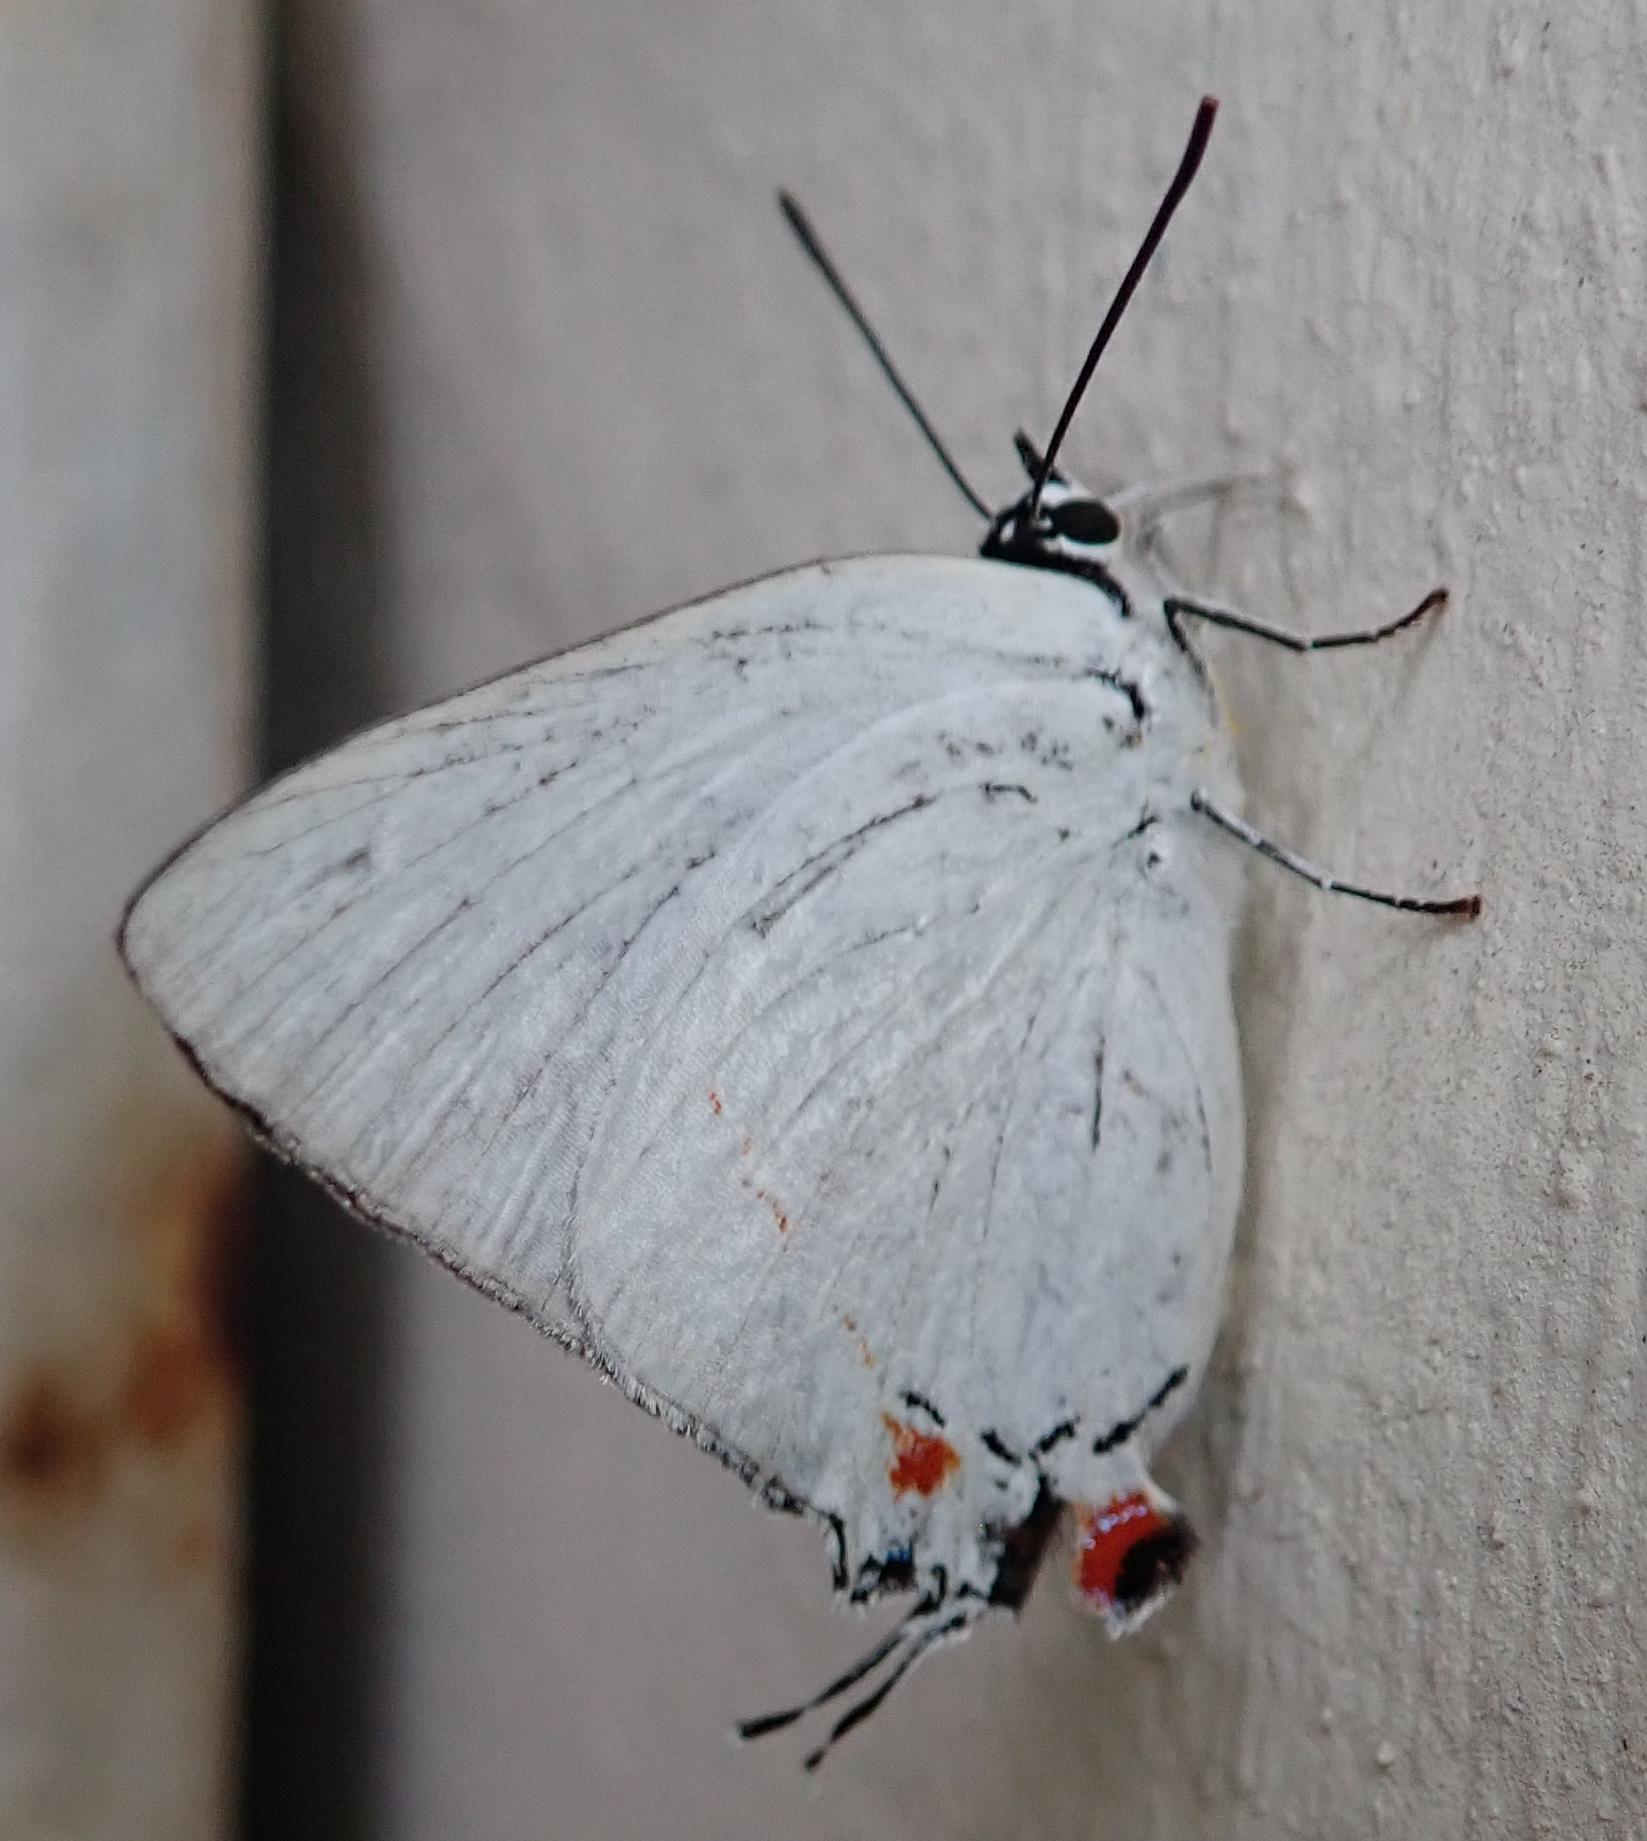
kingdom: Animalia
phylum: Arthropoda
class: Insecta
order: Lepidoptera
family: Lycaenidae
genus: Argiolaus
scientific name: Argiolaus silas
